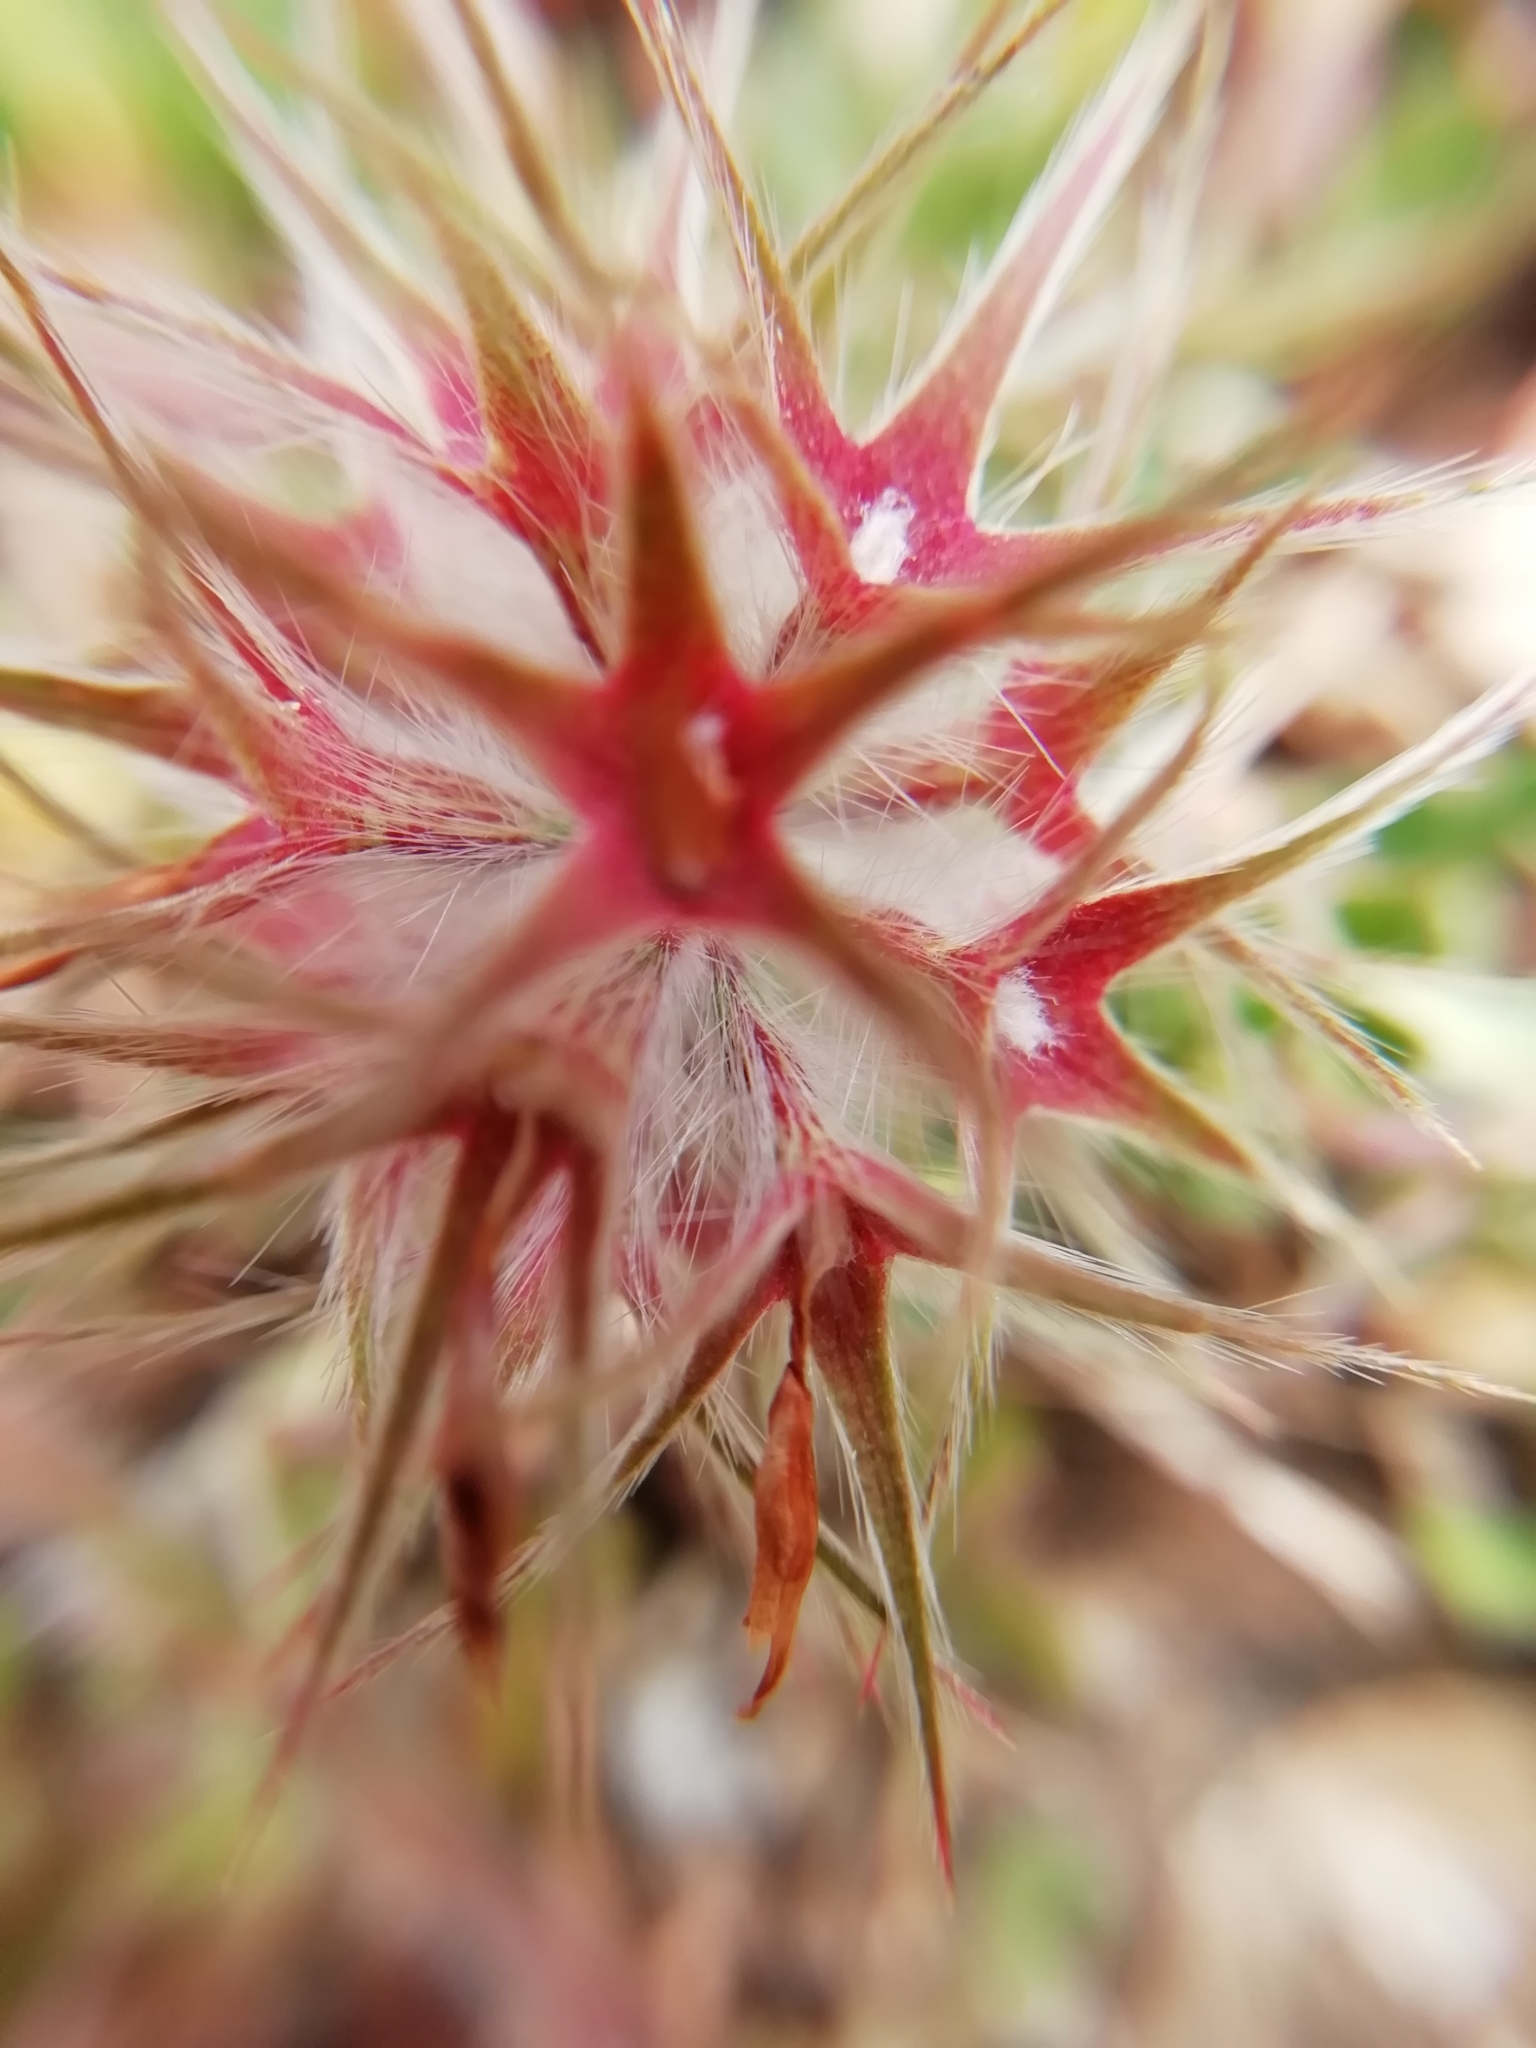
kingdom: Plantae
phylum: Tracheophyta
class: Magnoliopsida
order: Fabales
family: Fabaceae
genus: Trifolium
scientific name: Trifolium stellatum
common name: Starry clover
